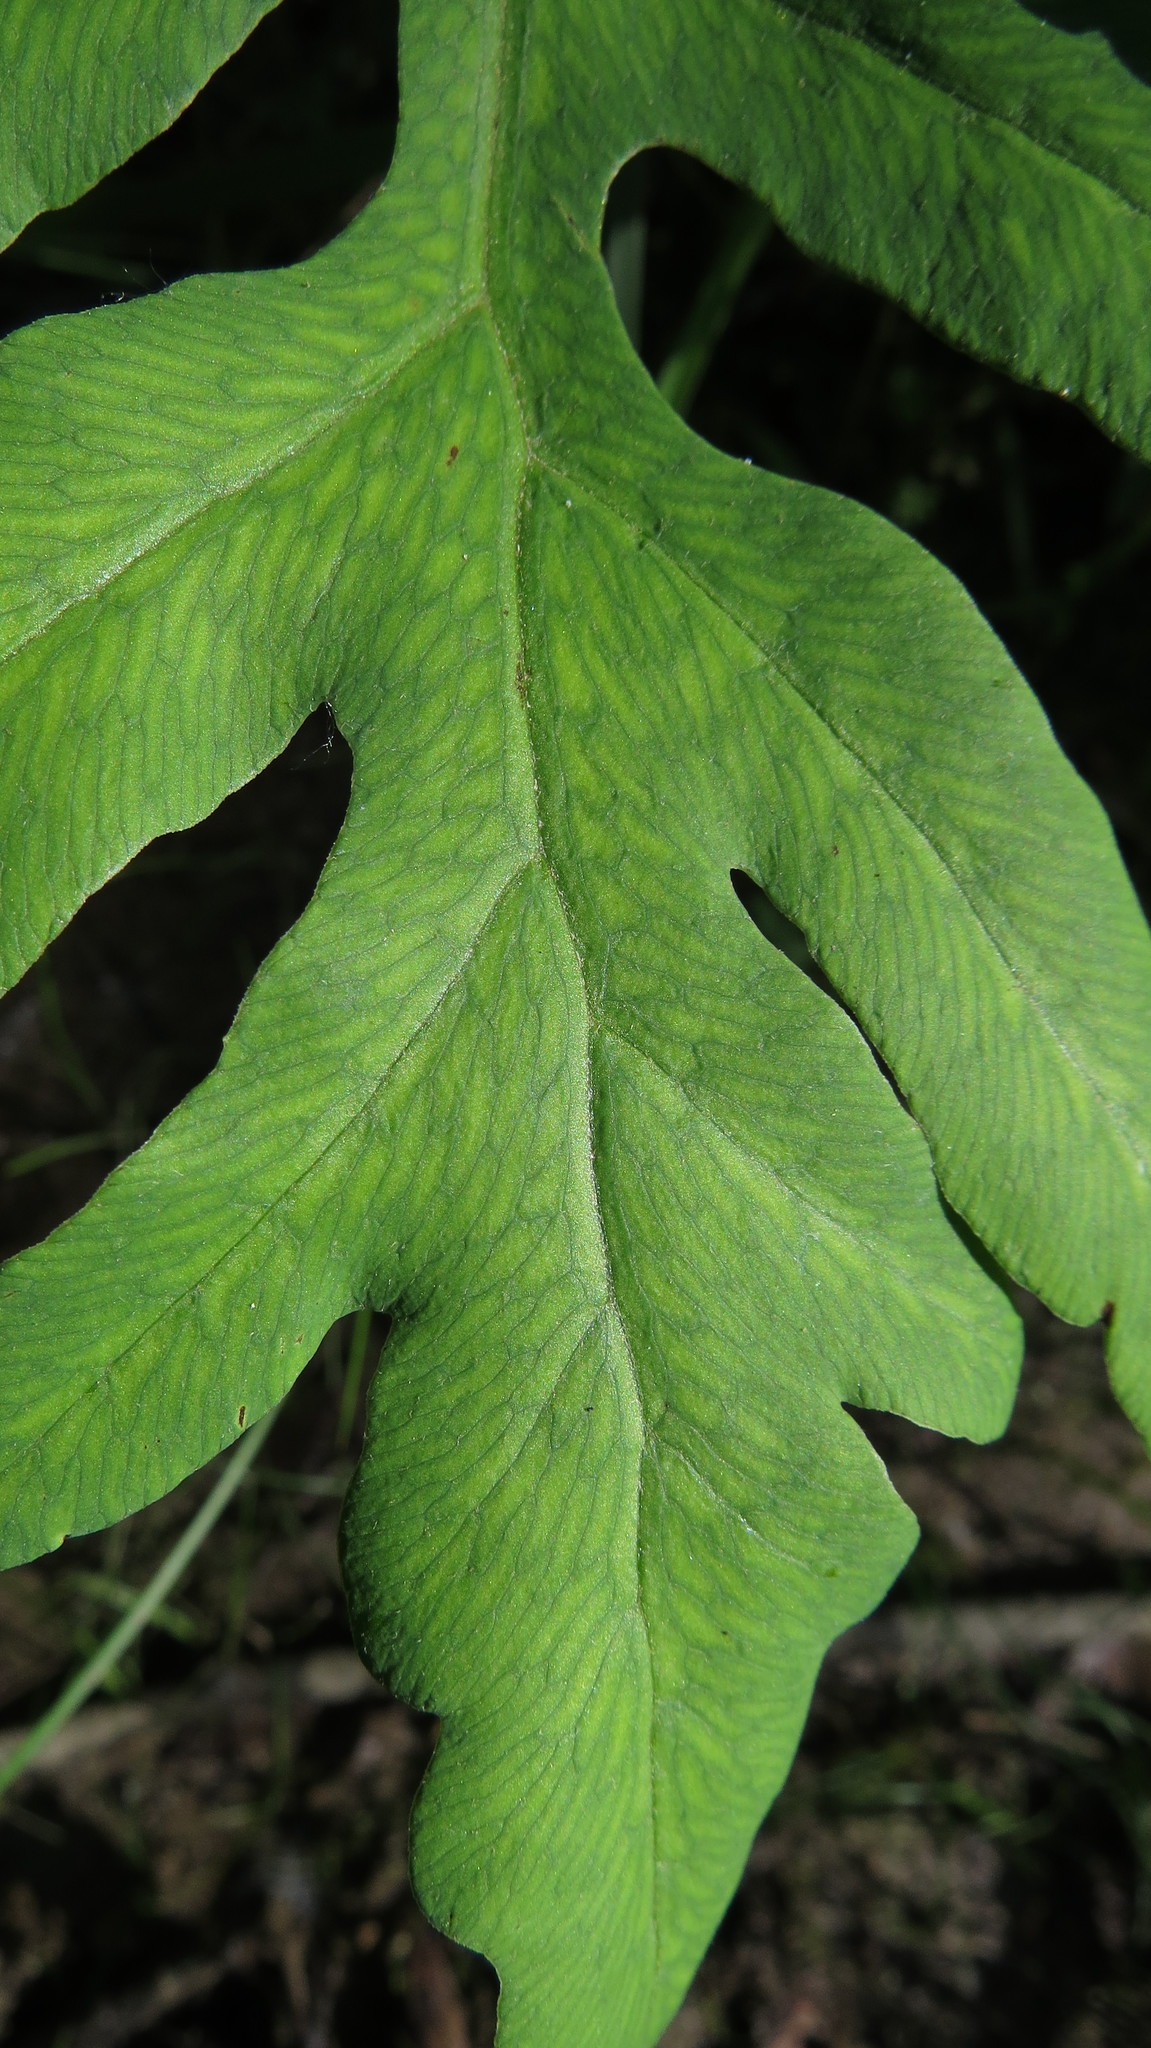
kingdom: Plantae
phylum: Tracheophyta
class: Polypodiopsida
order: Polypodiales
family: Onocleaceae
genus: Onoclea
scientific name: Onoclea sensibilis
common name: Sensitive fern
